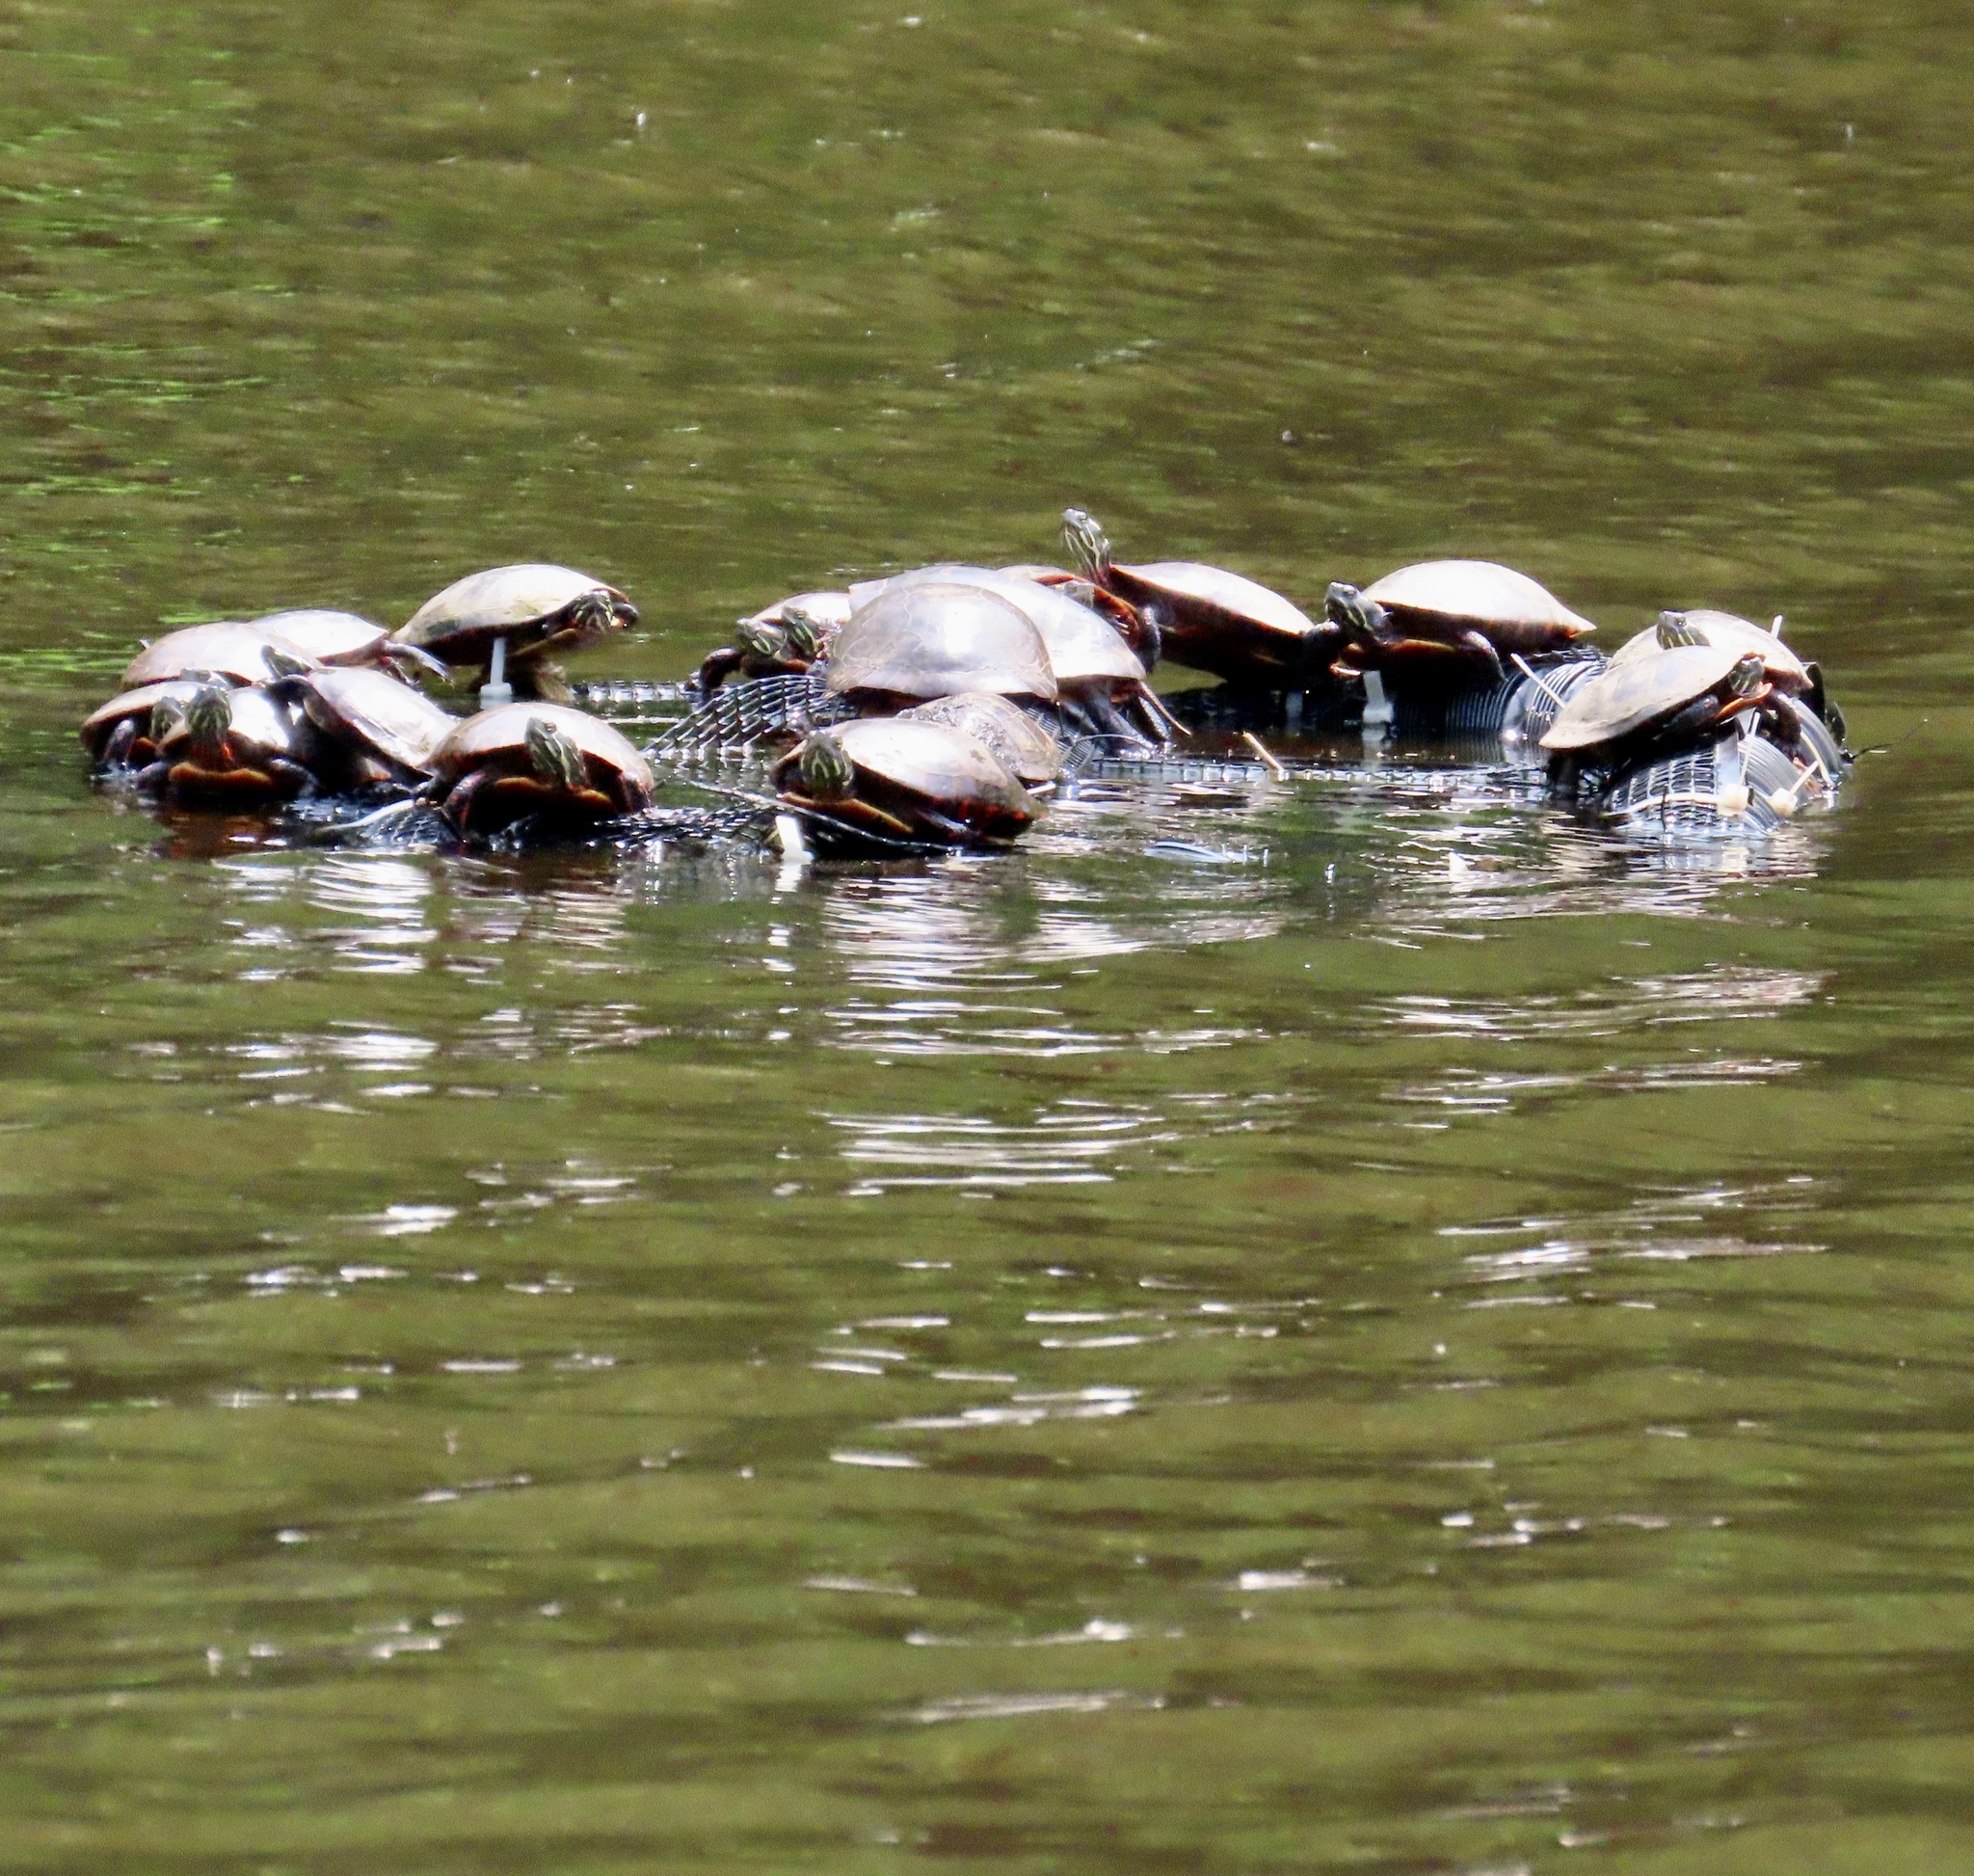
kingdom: Animalia
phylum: Chordata
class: Testudines
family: Emydidae
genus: Chrysemys
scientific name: Chrysemys picta
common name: Painted turtle
